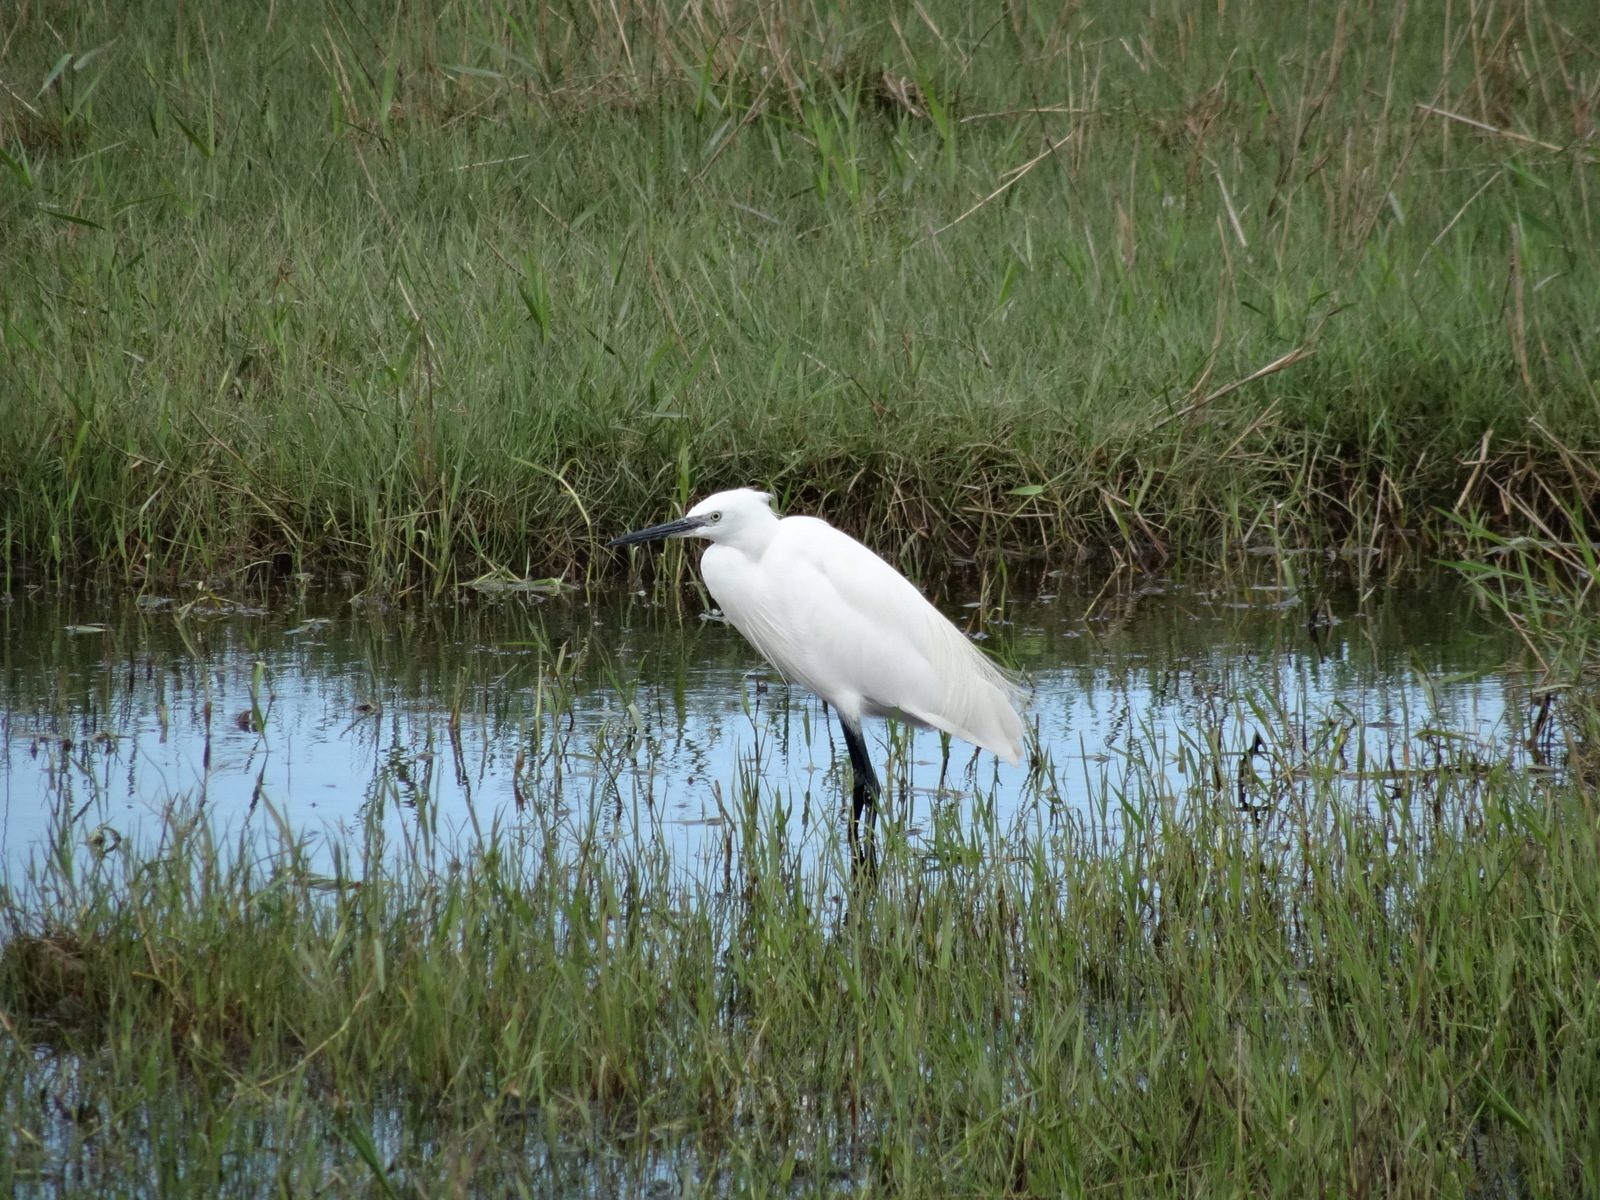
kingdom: Animalia
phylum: Chordata
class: Aves
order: Pelecaniformes
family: Ardeidae
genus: Egretta
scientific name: Egretta garzetta
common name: Little egret
